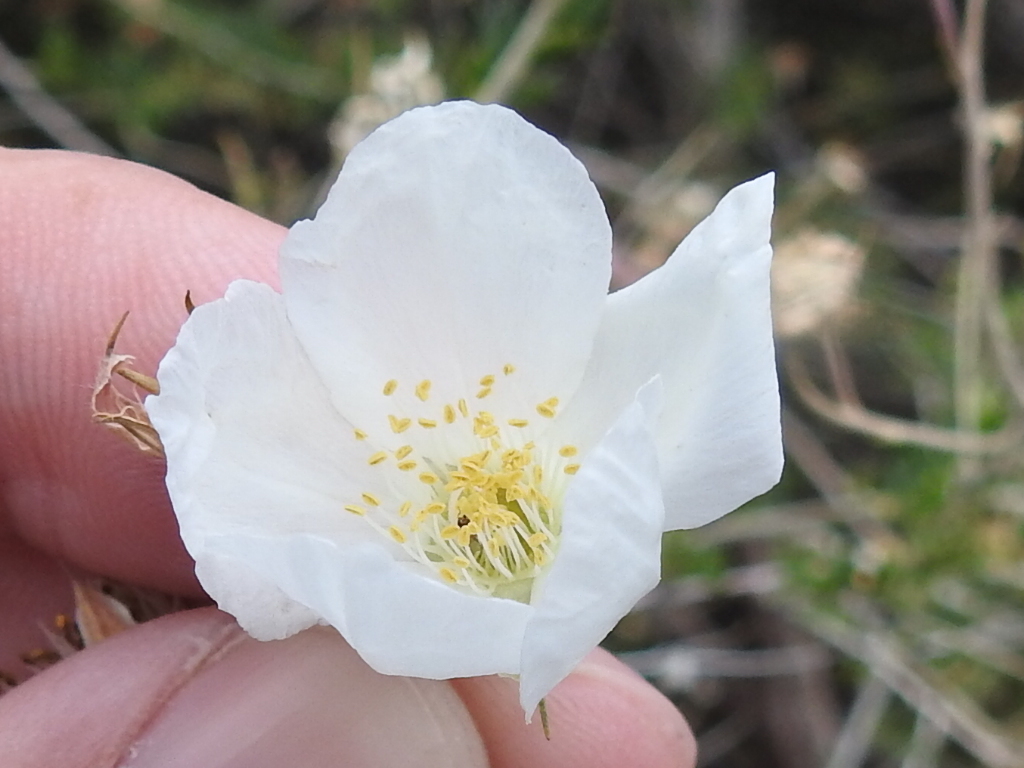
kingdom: Plantae
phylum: Tracheophyta
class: Magnoliopsida
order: Rosales
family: Rosaceae
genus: Fallugia
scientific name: Fallugia paradoxa
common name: Apache-plume
